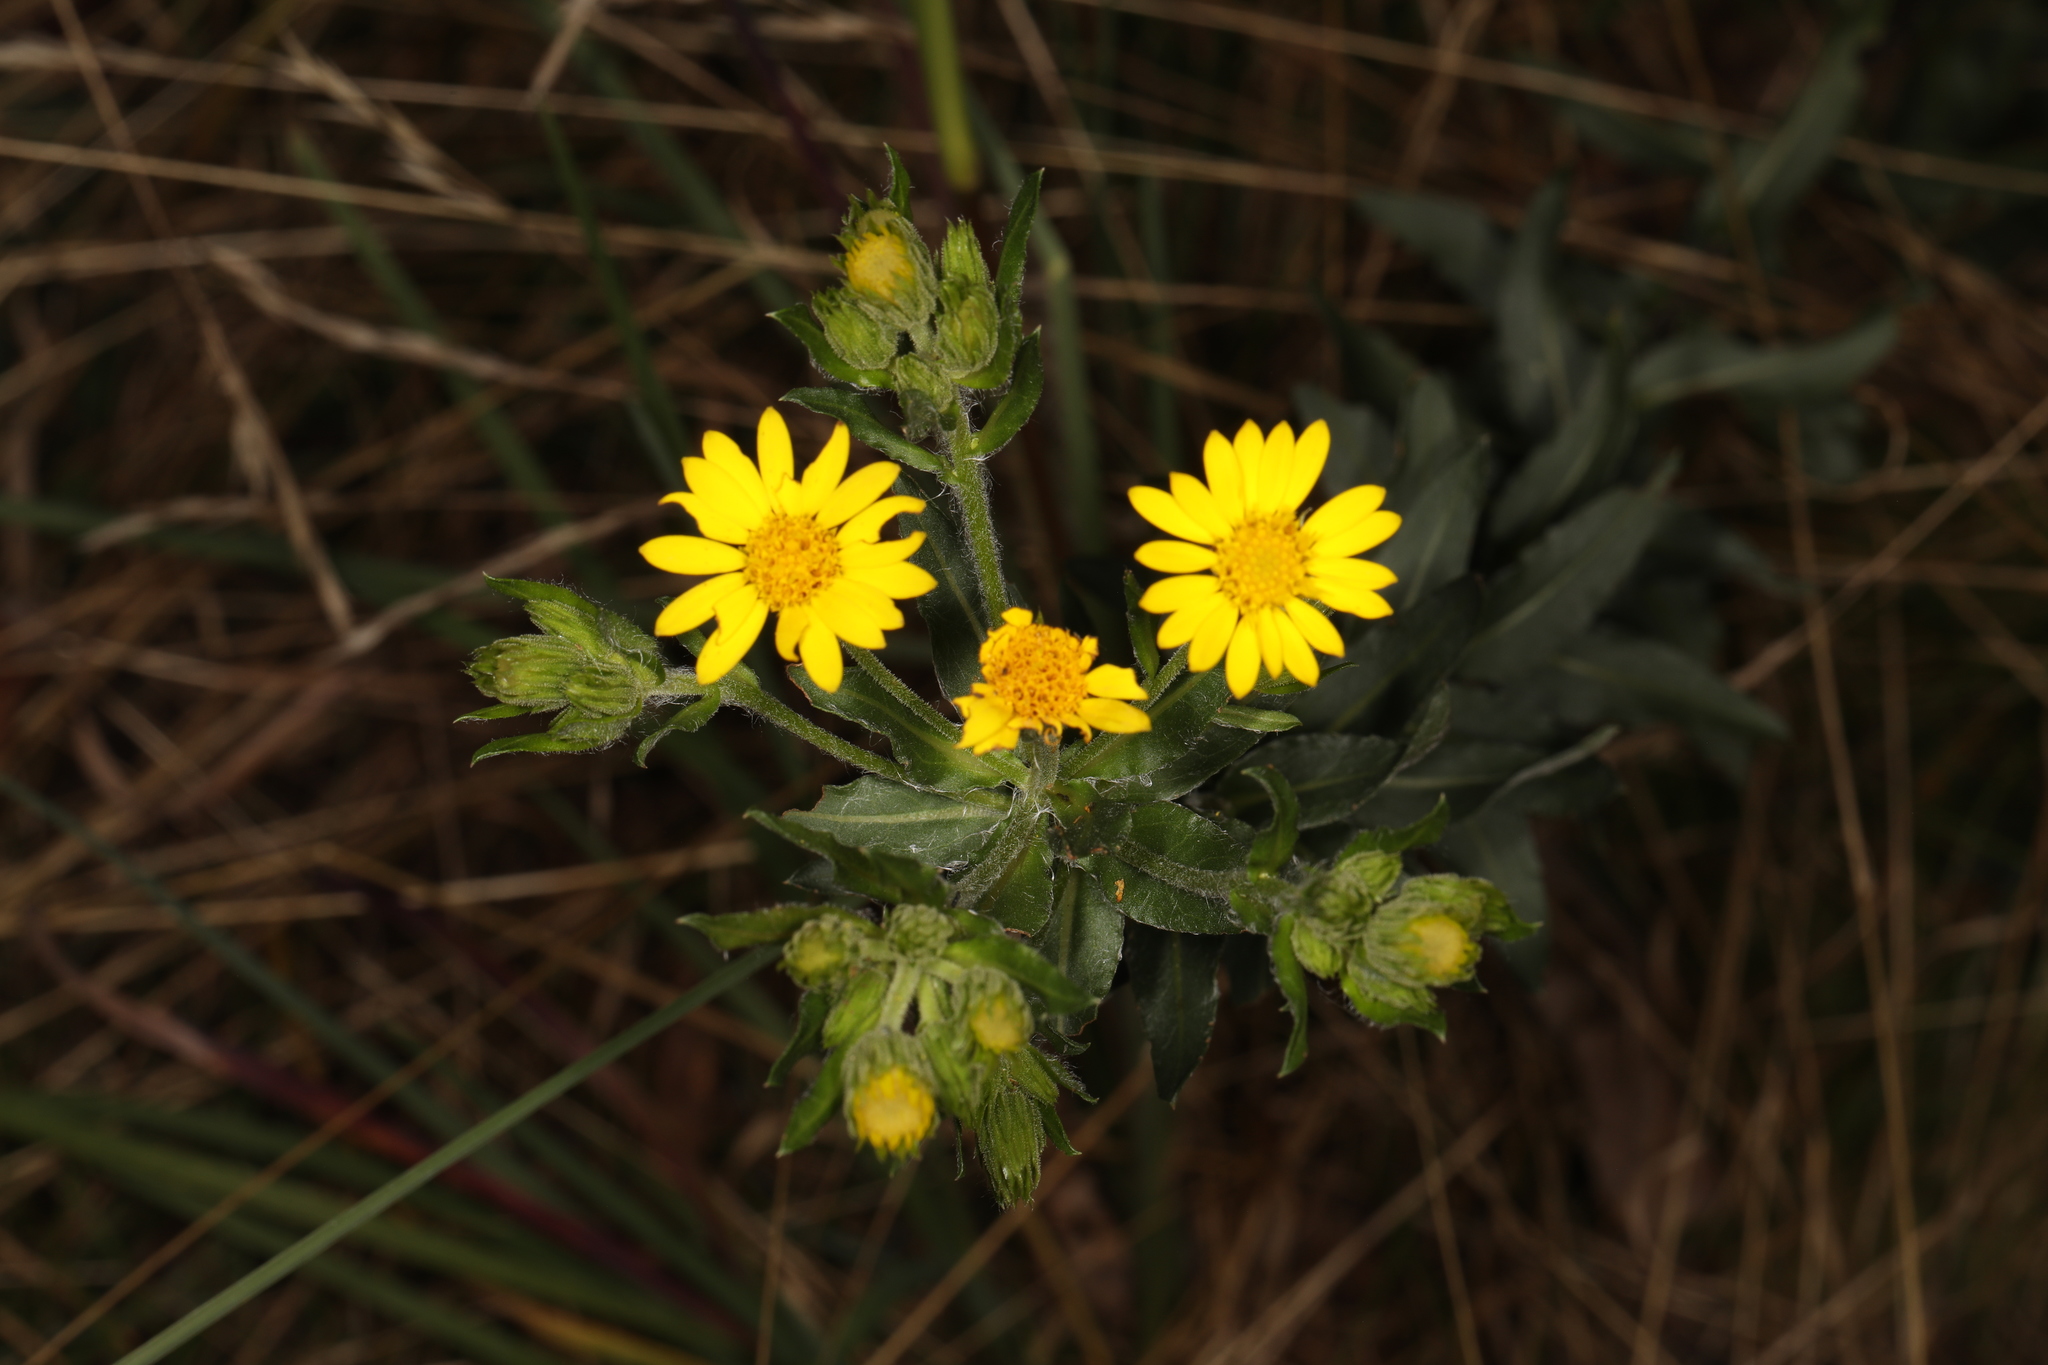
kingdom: Plantae
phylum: Tracheophyta
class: Magnoliopsida
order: Asterales
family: Asteraceae
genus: Chrysopsis
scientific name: Chrysopsis mariana
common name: Maryland golden-aster
